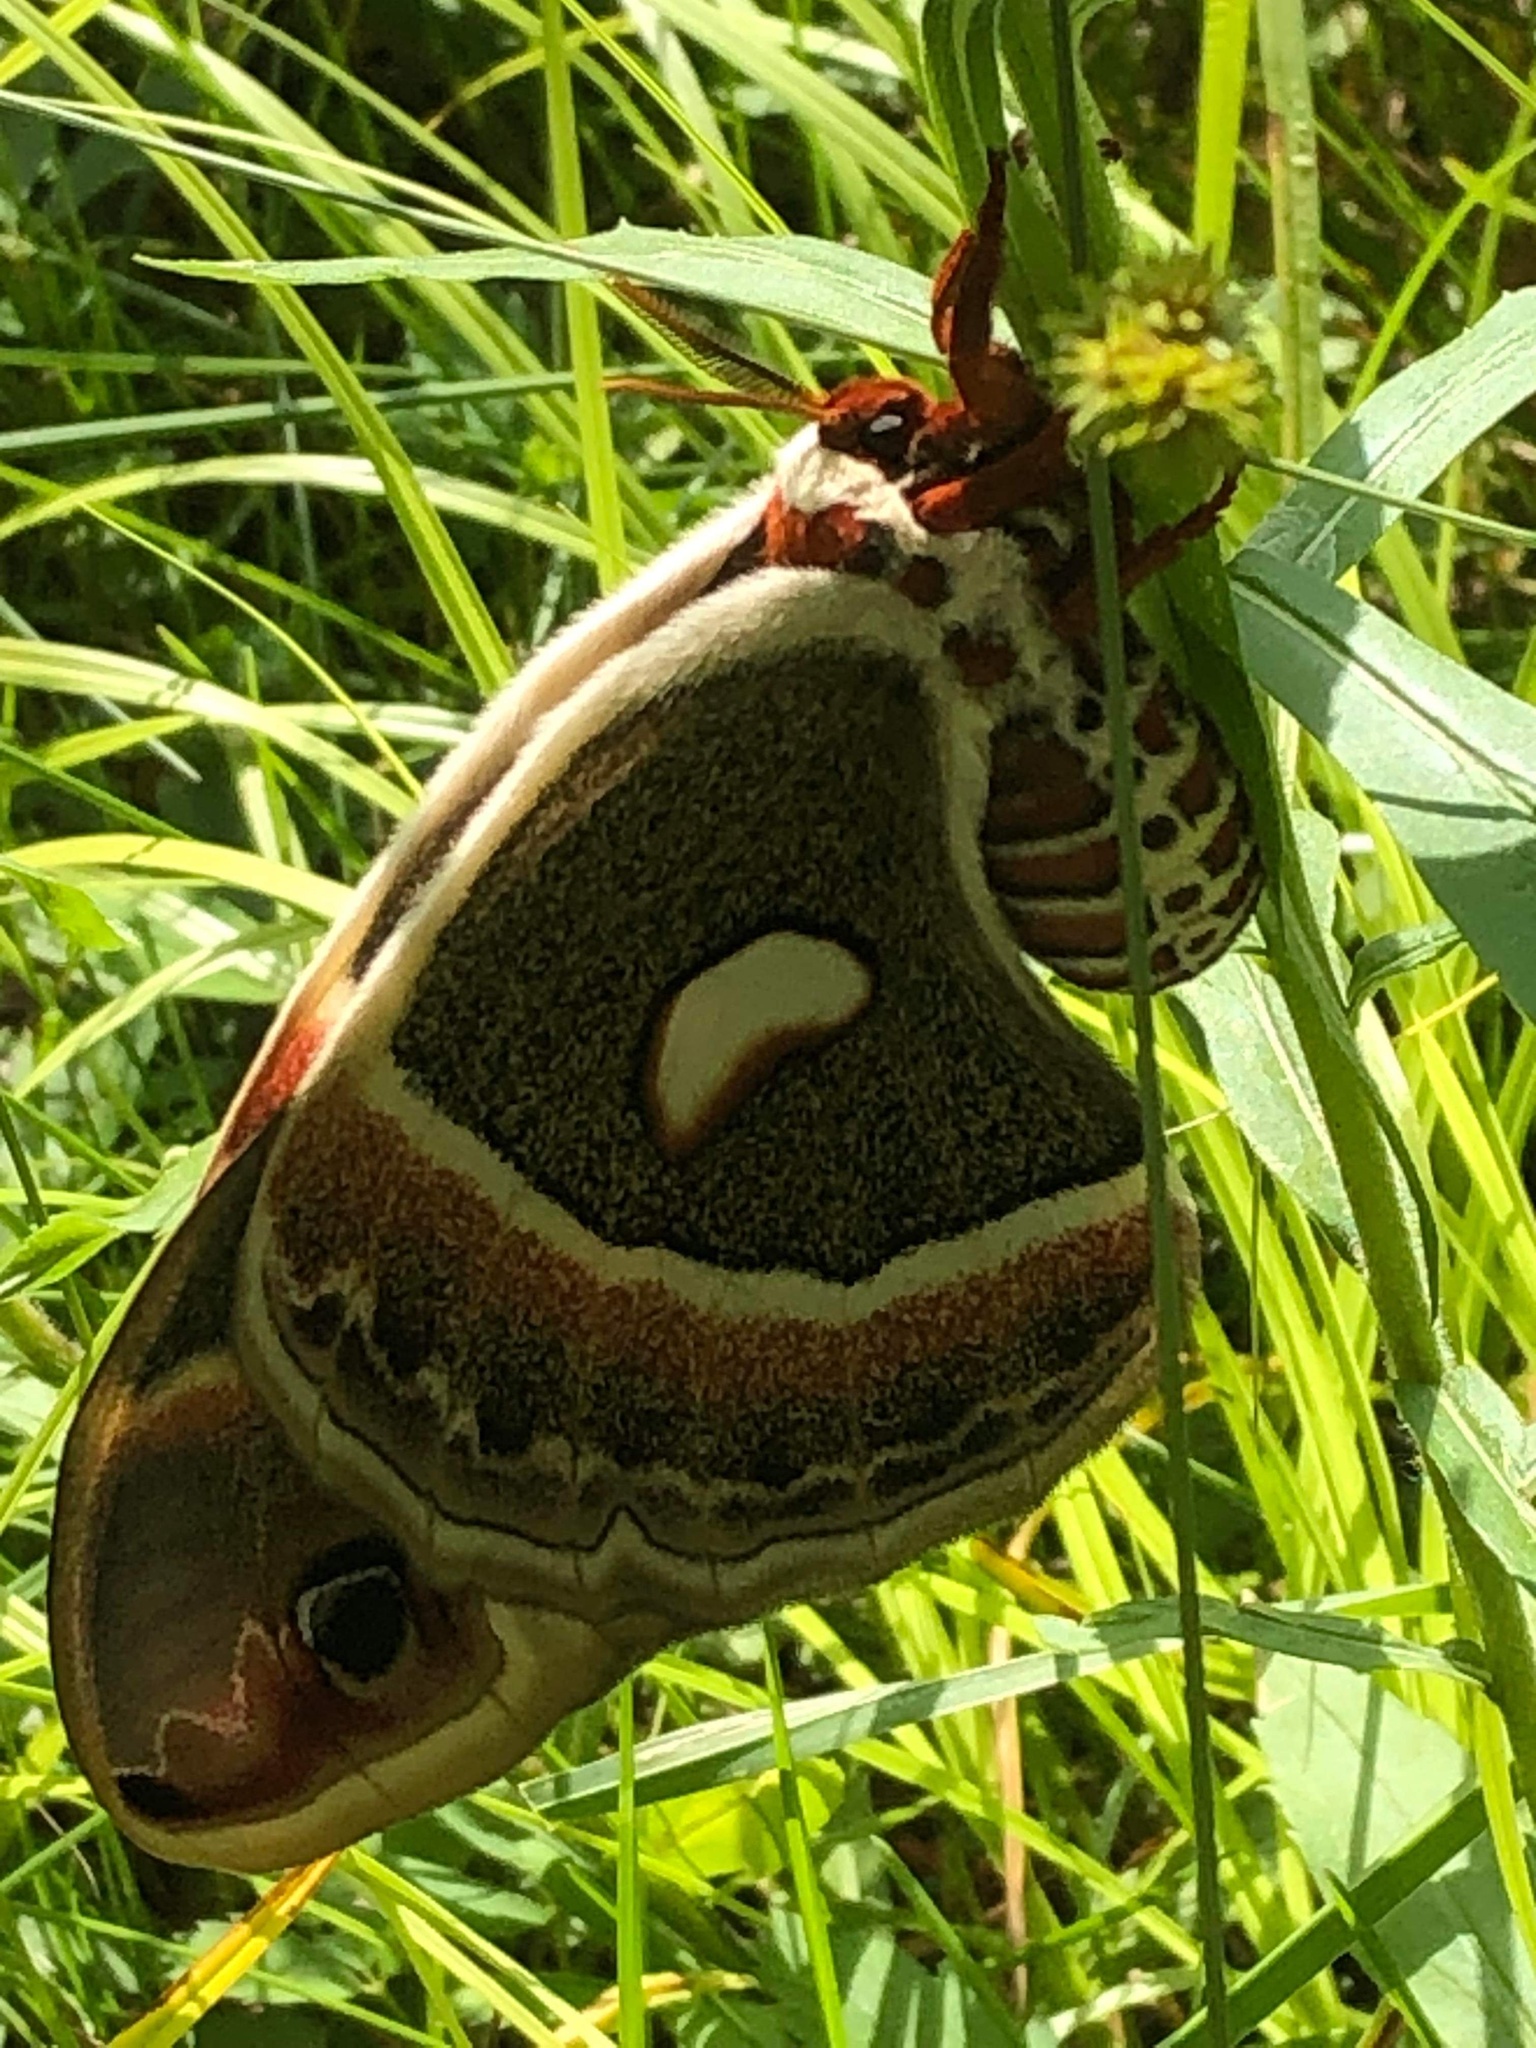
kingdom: Animalia
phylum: Arthropoda
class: Insecta
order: Lepidoptera
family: Saturniidae
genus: Hyalophora
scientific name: Hyalophora cecropia
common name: Cecropia silkmoth
